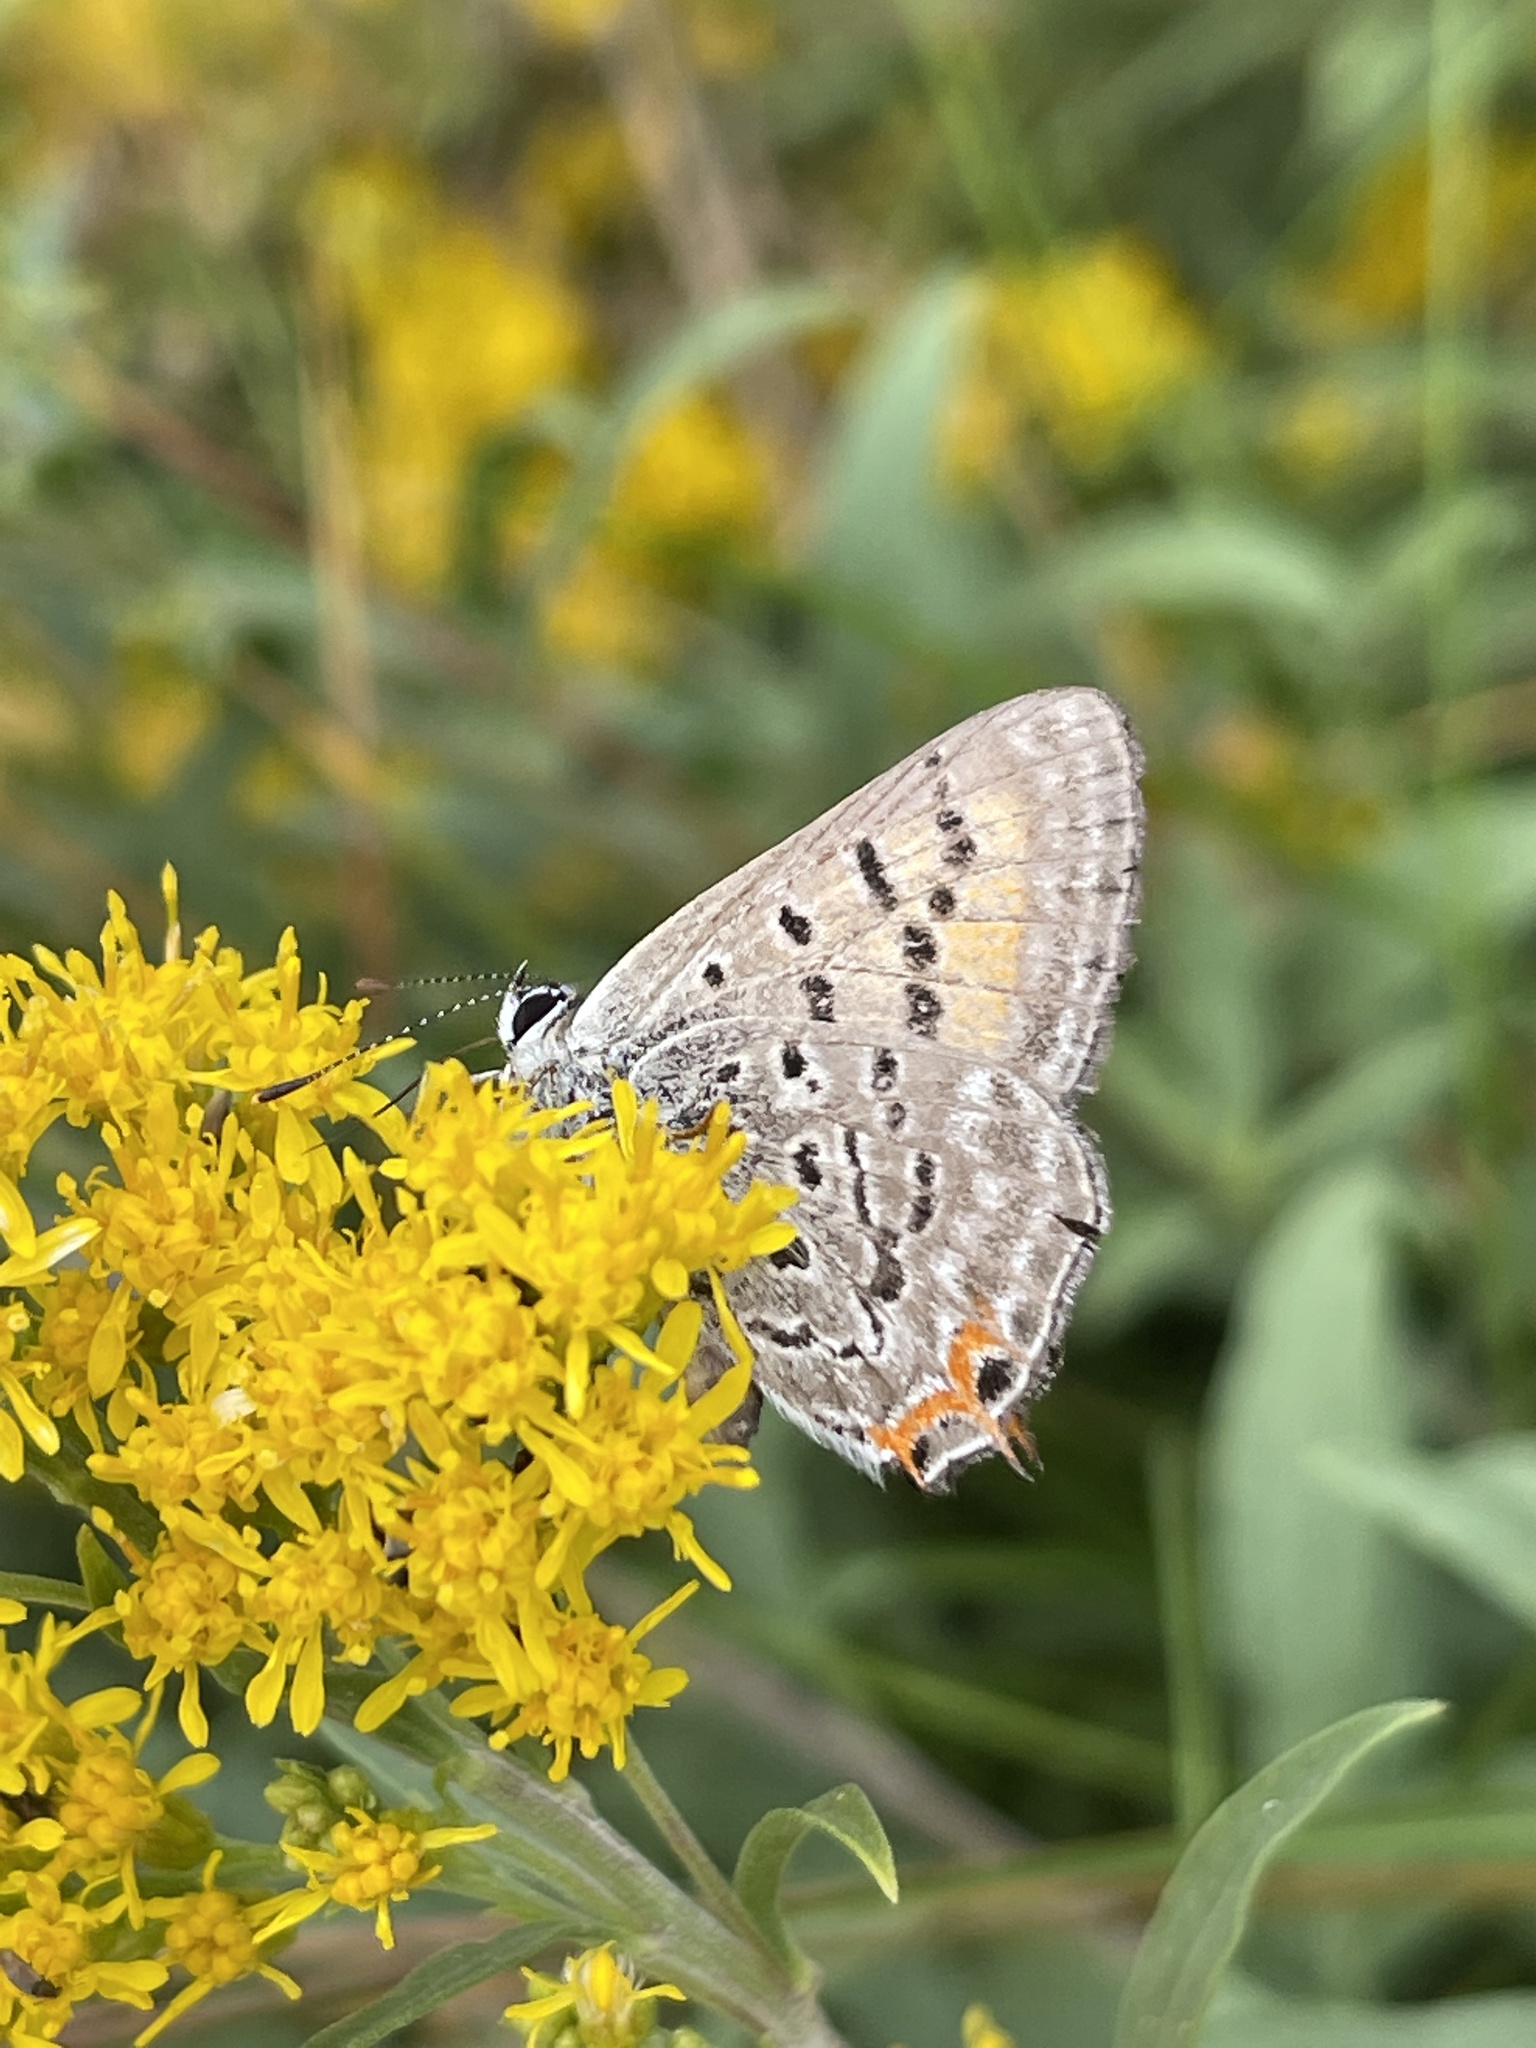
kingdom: Animalia
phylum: Arthropoda
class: Insecta
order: Lepidoptera
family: Lycaenidae
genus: Tharsalea
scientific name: Tharsalea arota
